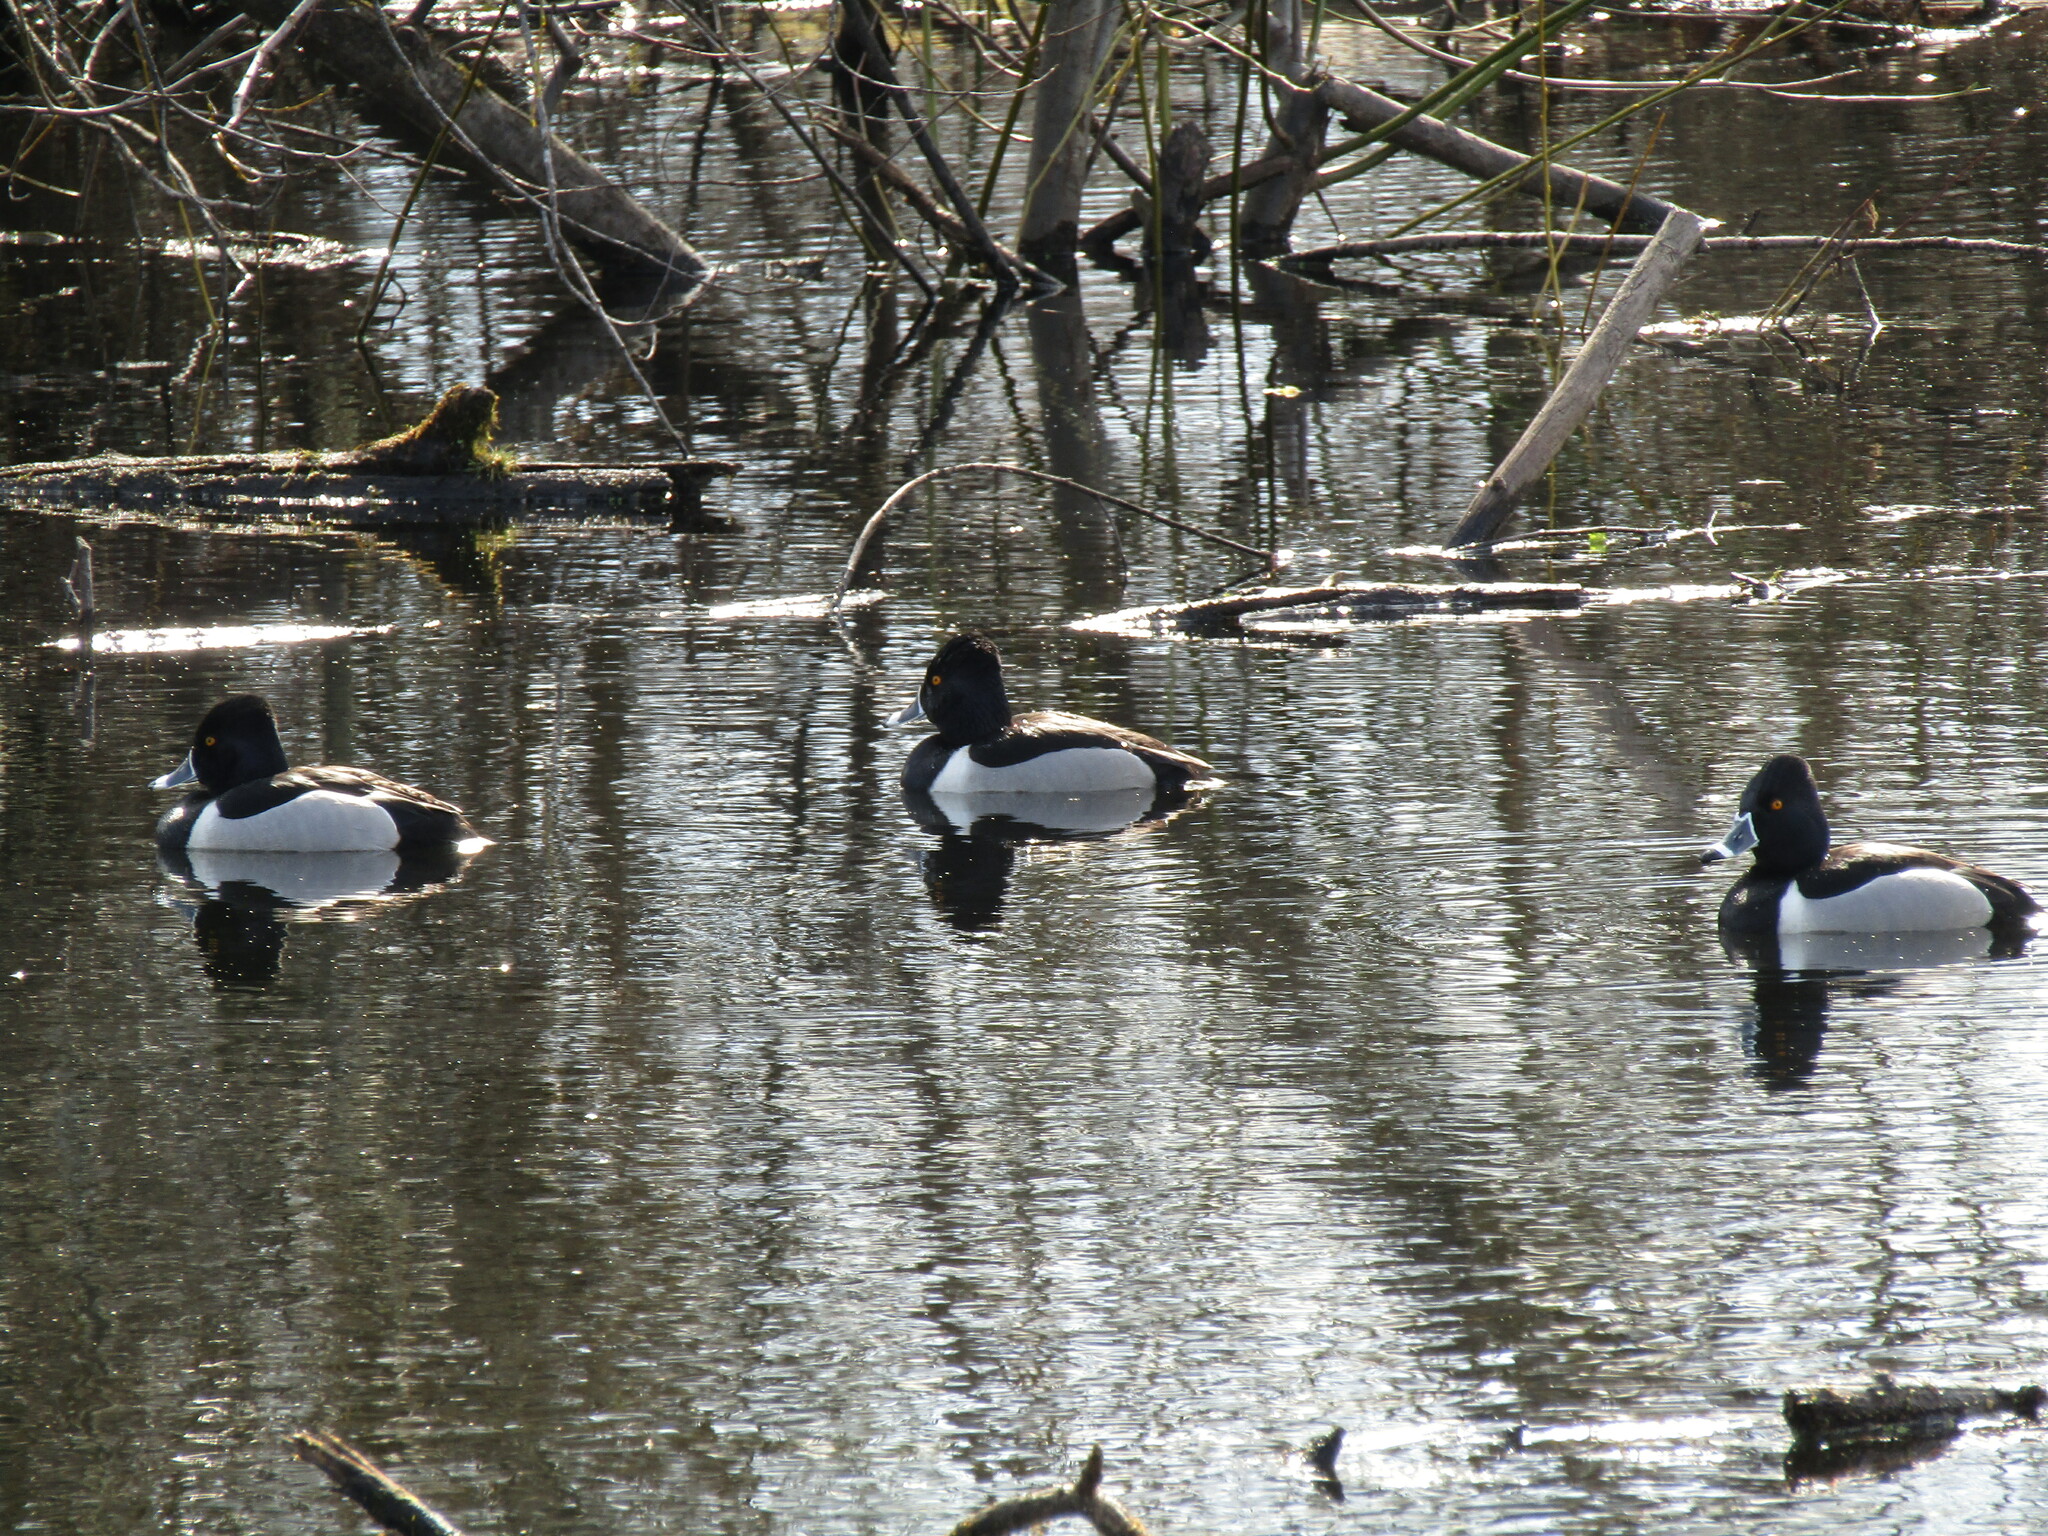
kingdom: Animalia
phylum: Chordata
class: Aves
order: Anseriformes
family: Anatidae
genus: Aythya
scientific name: Aythya collaris
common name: Ring-necked duck
